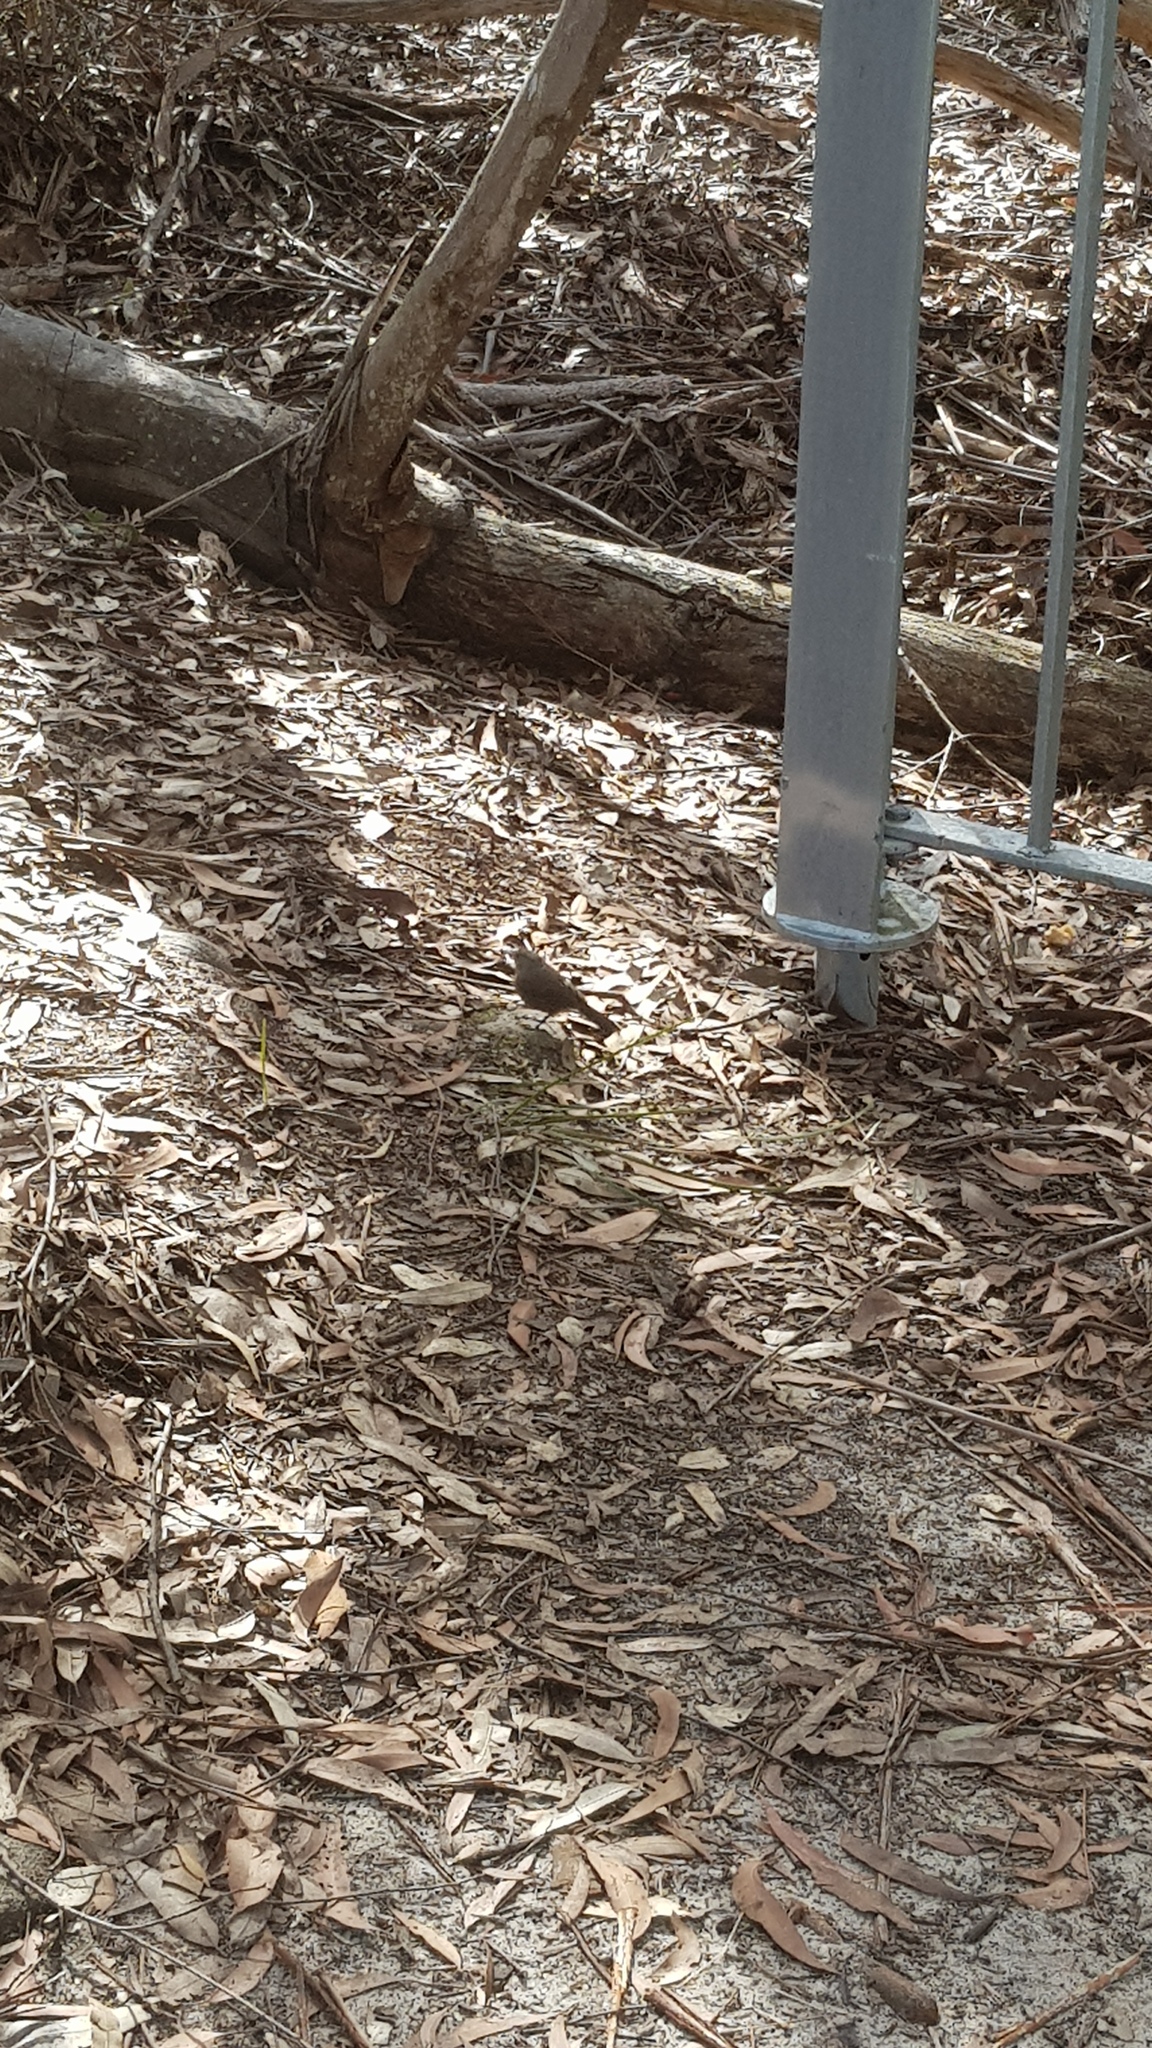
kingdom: Animalia
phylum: Chordata
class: Aves
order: Passeriformes
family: Acanthizidae
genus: Origma
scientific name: Origma solitaria
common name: Rockwarbler
